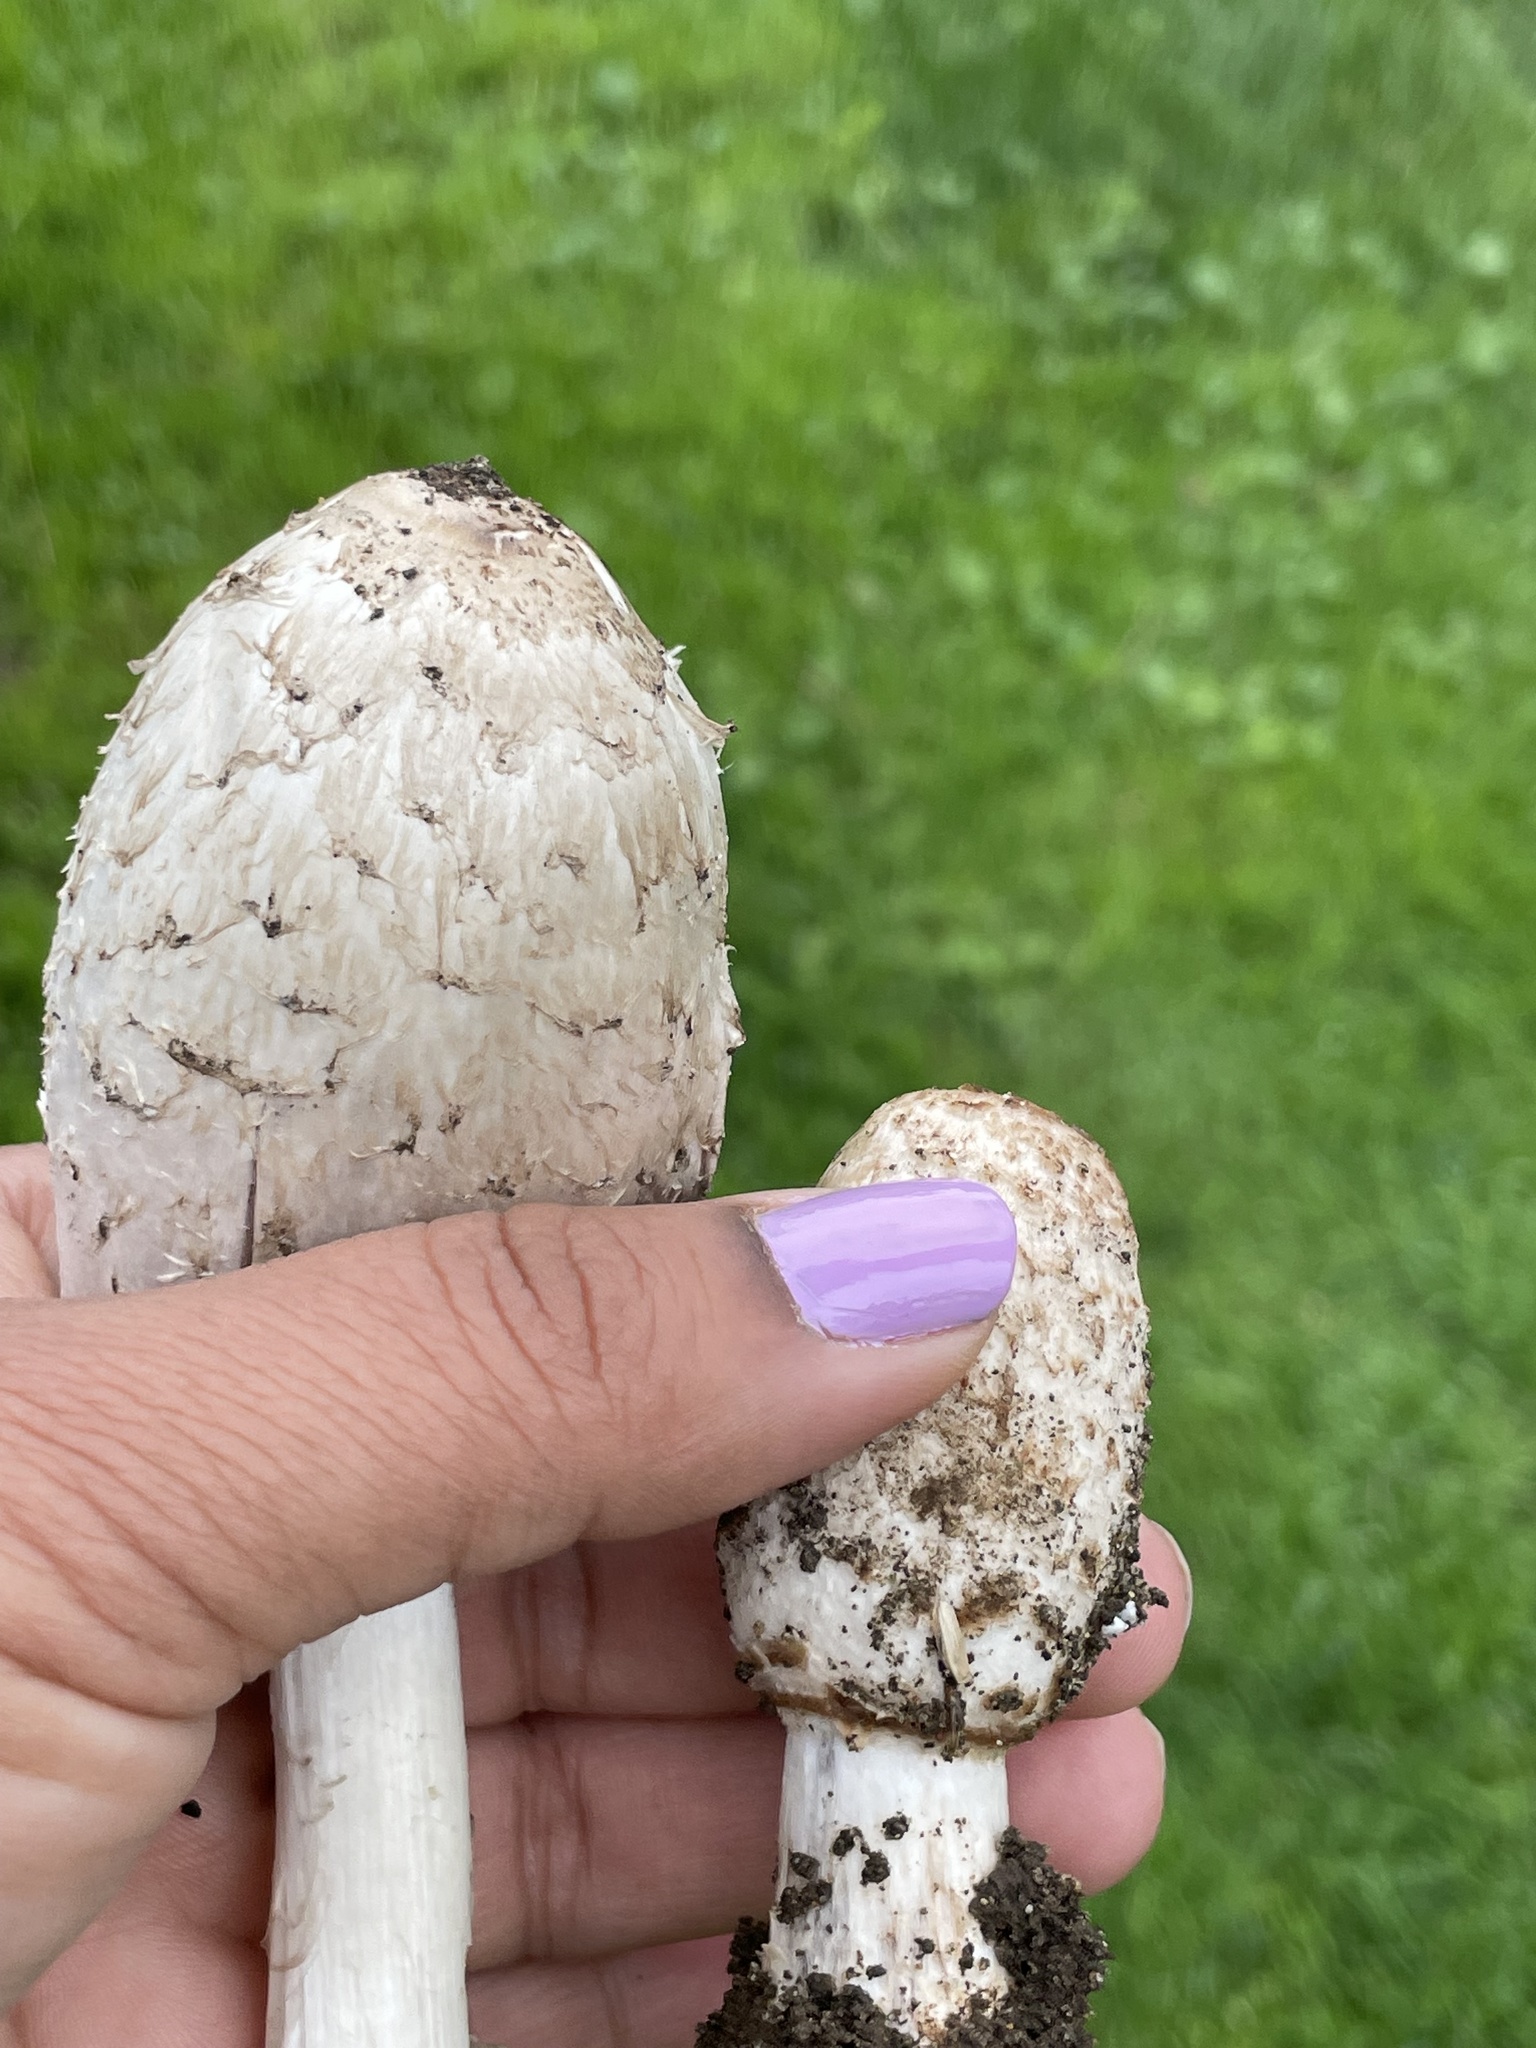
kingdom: Fungi
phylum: Basidiomycota
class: Agaricomycetes
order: Agaricales
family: Agaricaceae
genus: Coprinus
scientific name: Coprinus comatus
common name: Lawyer's wig
